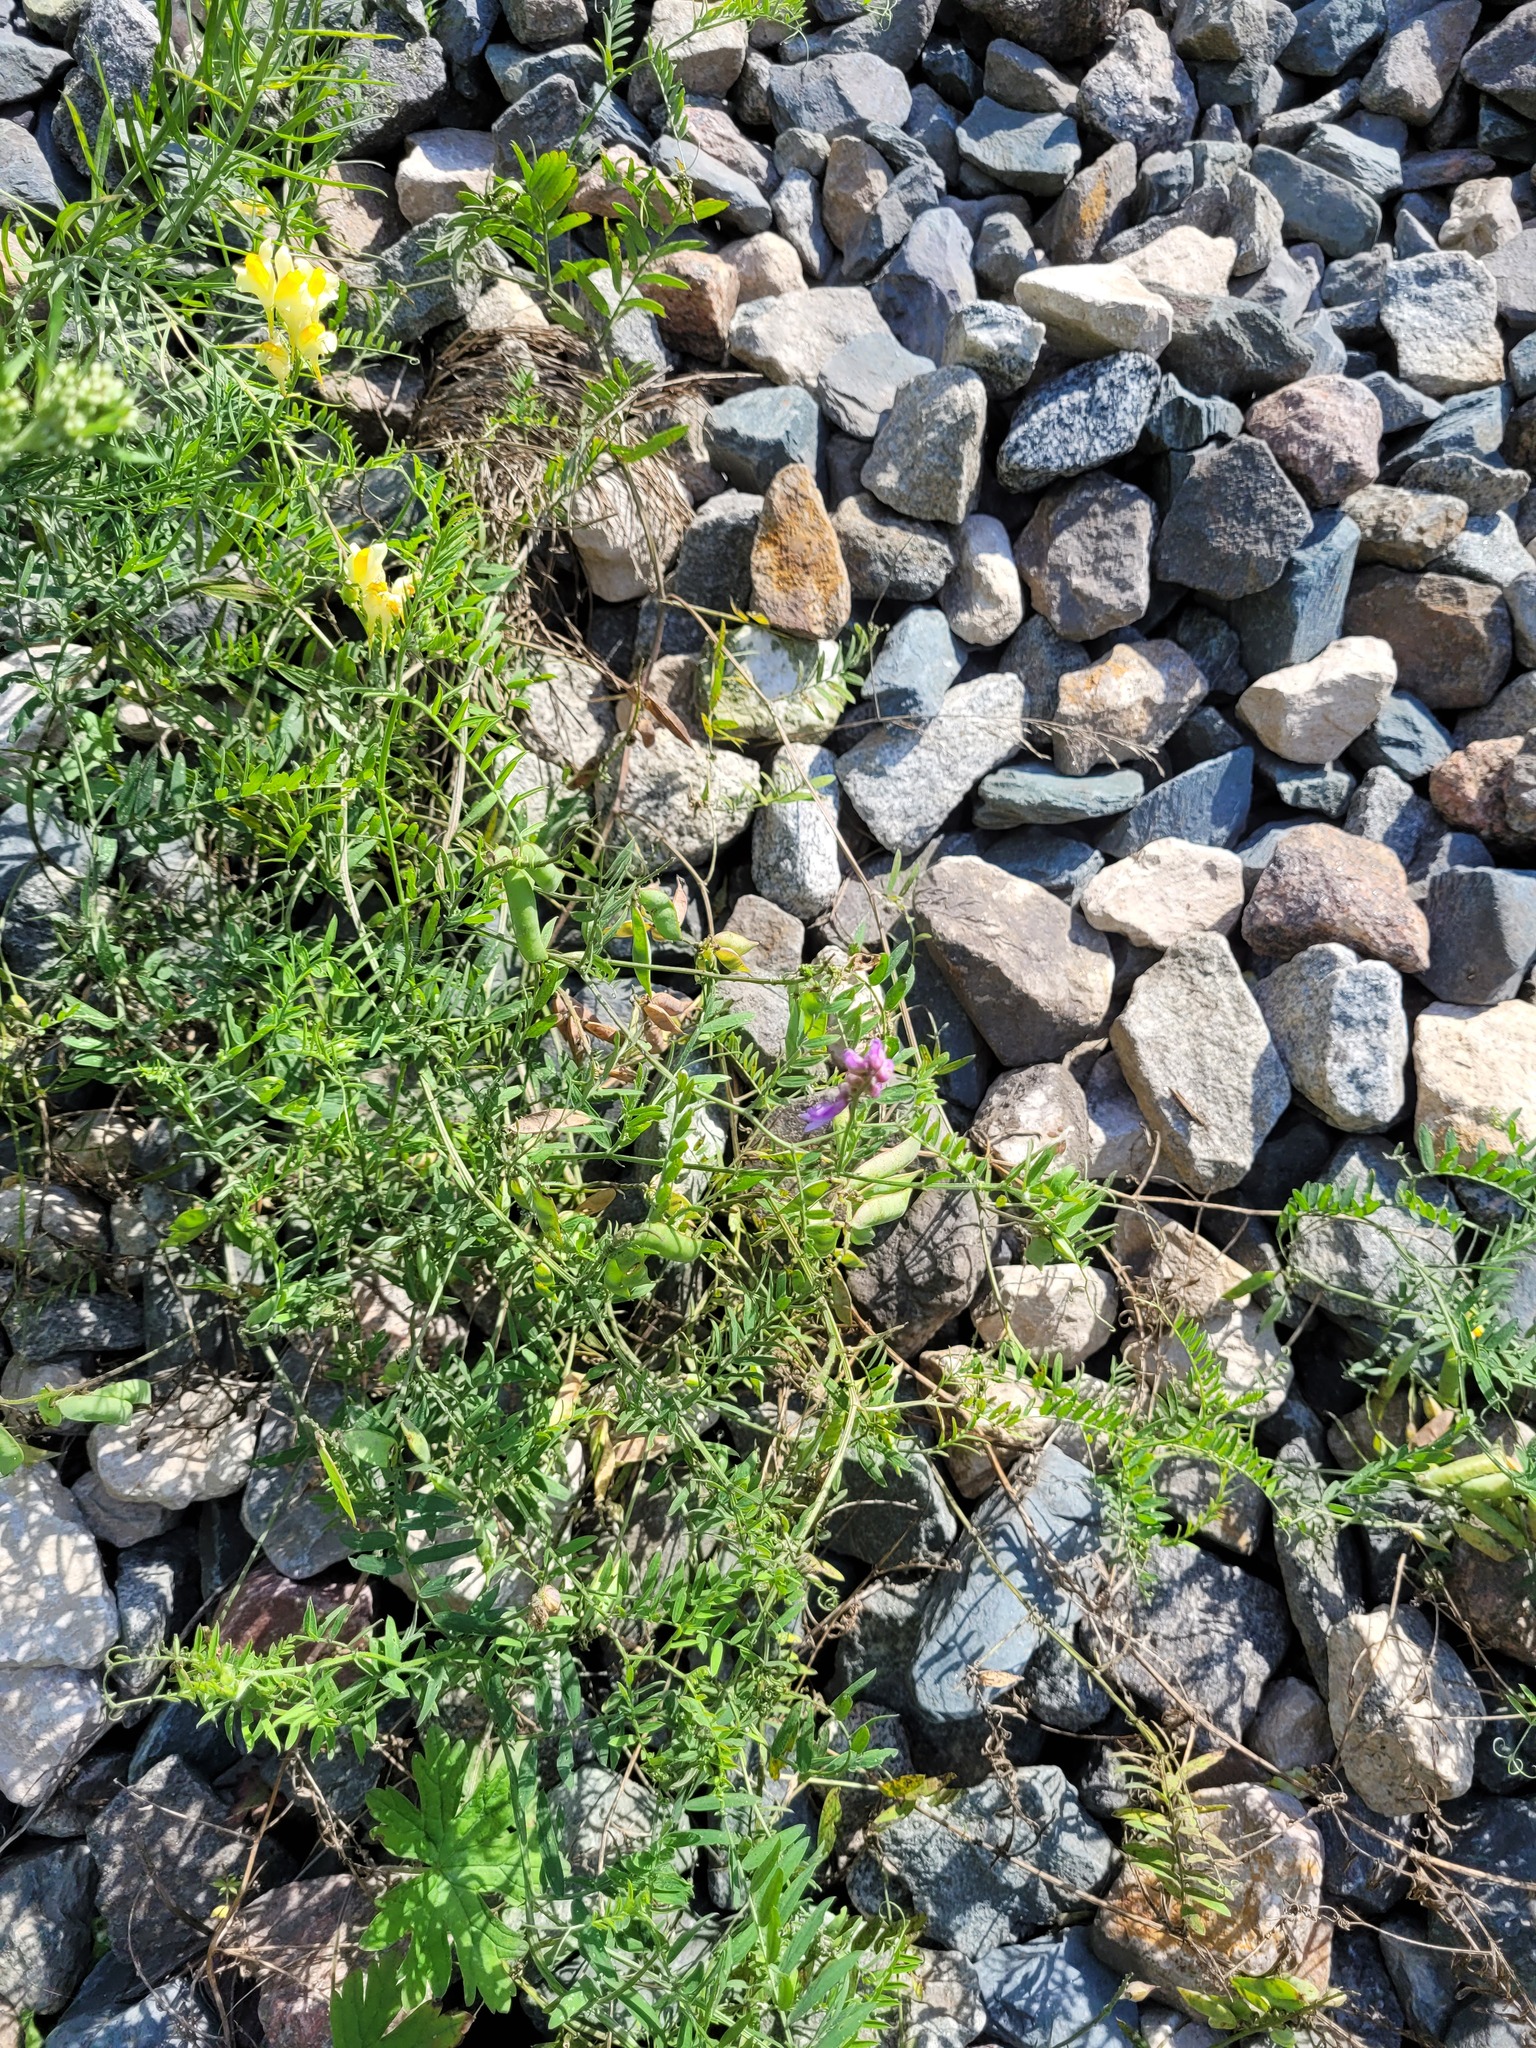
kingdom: Plantae
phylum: Tracheophyta
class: Magnoliopsida
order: Fabales
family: Fabaceae
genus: Vicia
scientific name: Vicia cracca
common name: Bird vetch
